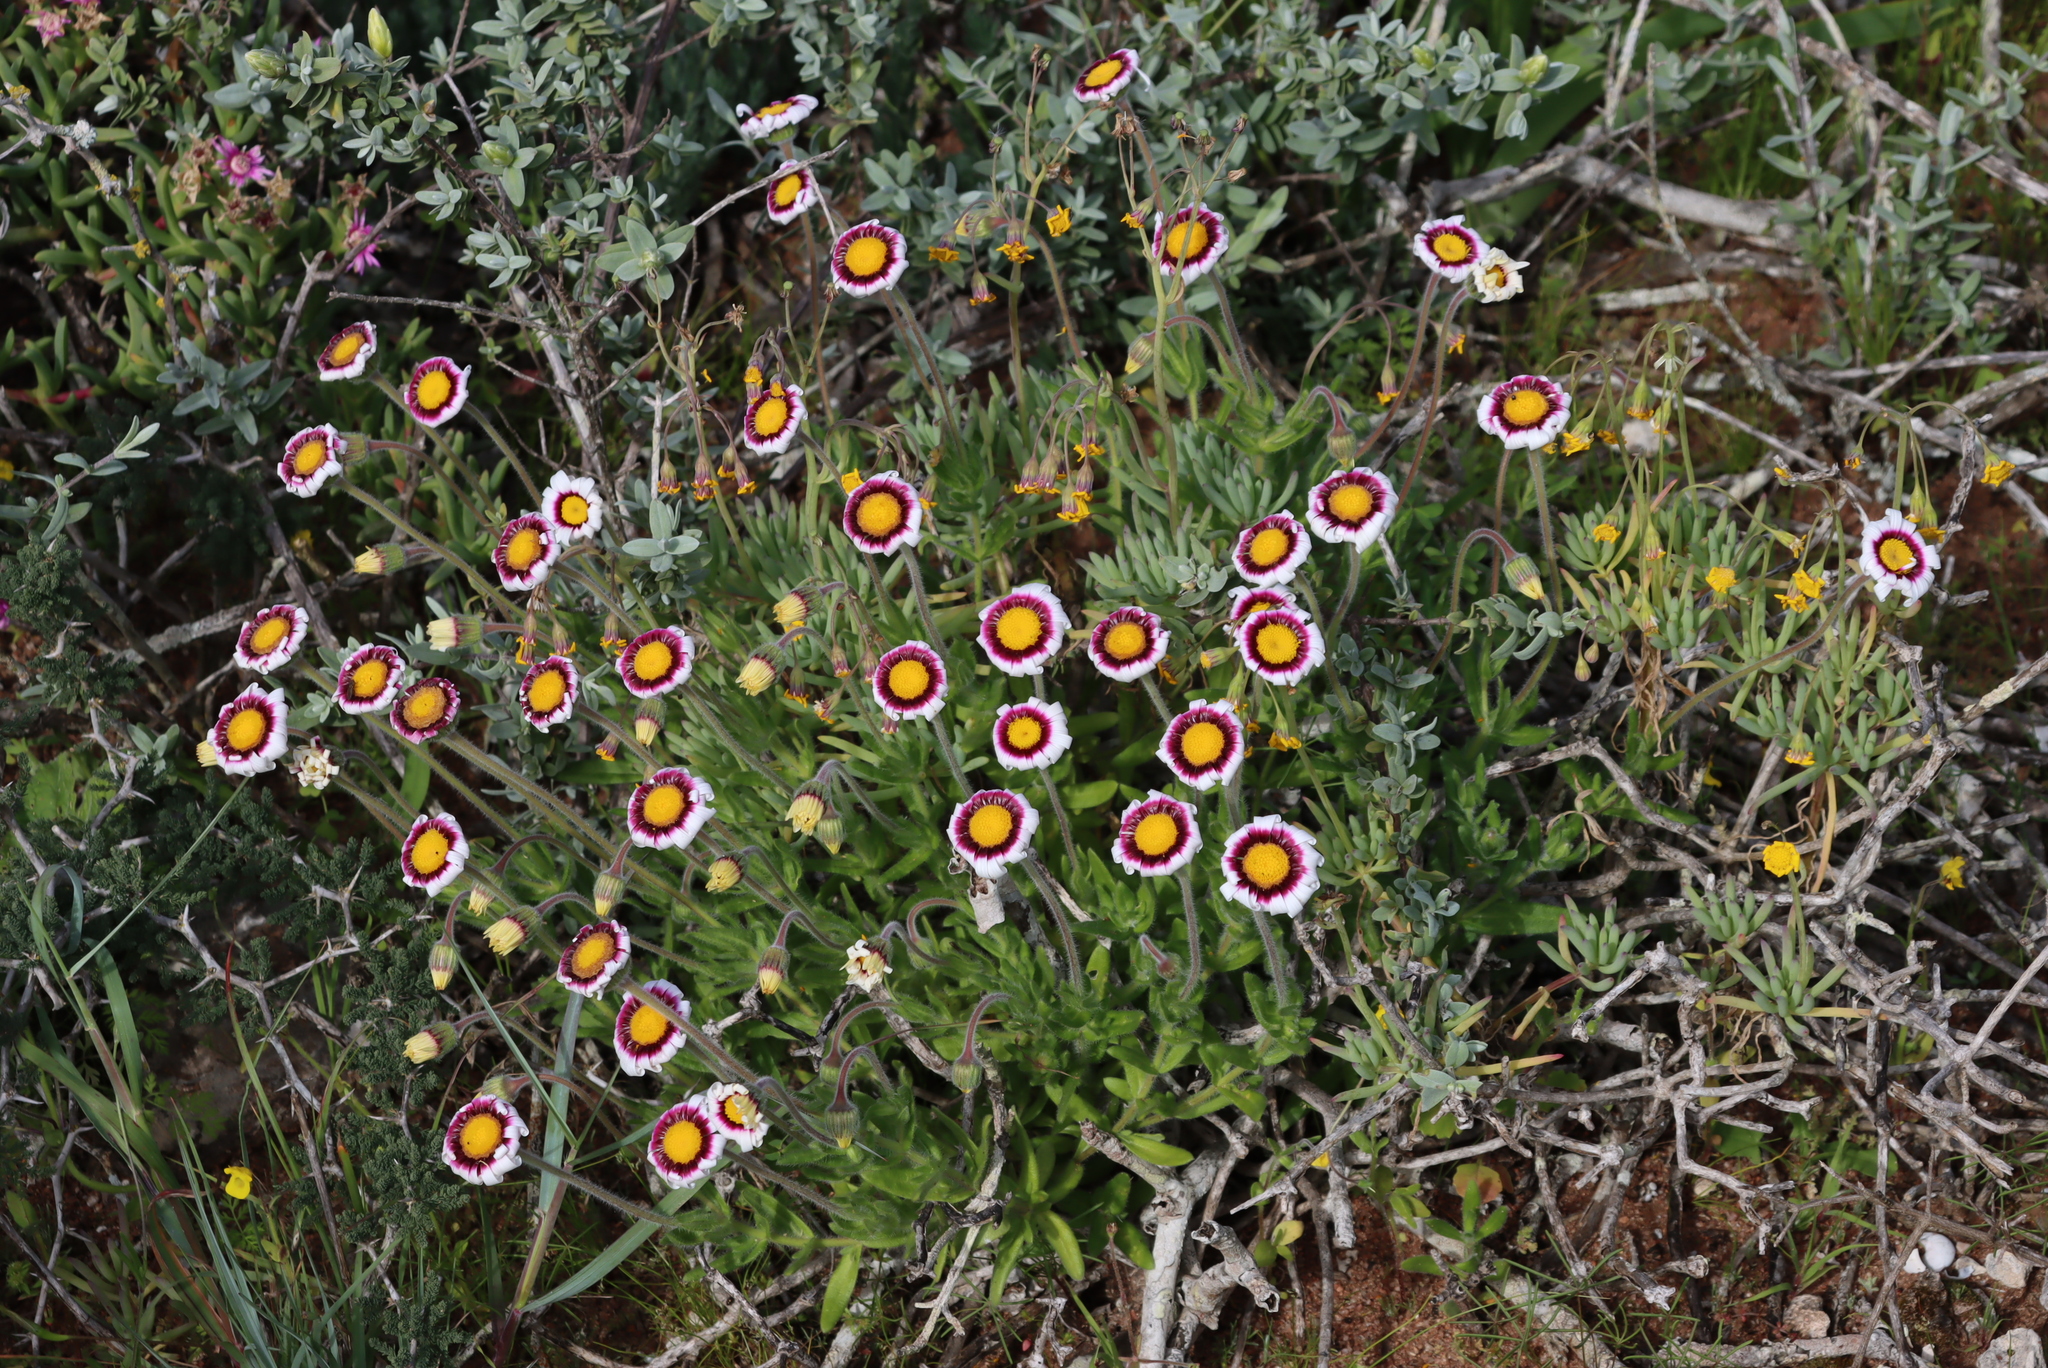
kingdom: Plantae
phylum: Tracheophyta
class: Magnoliopsida
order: Asterales
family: Asteraceae
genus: Felicia
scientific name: Felicia elongata
